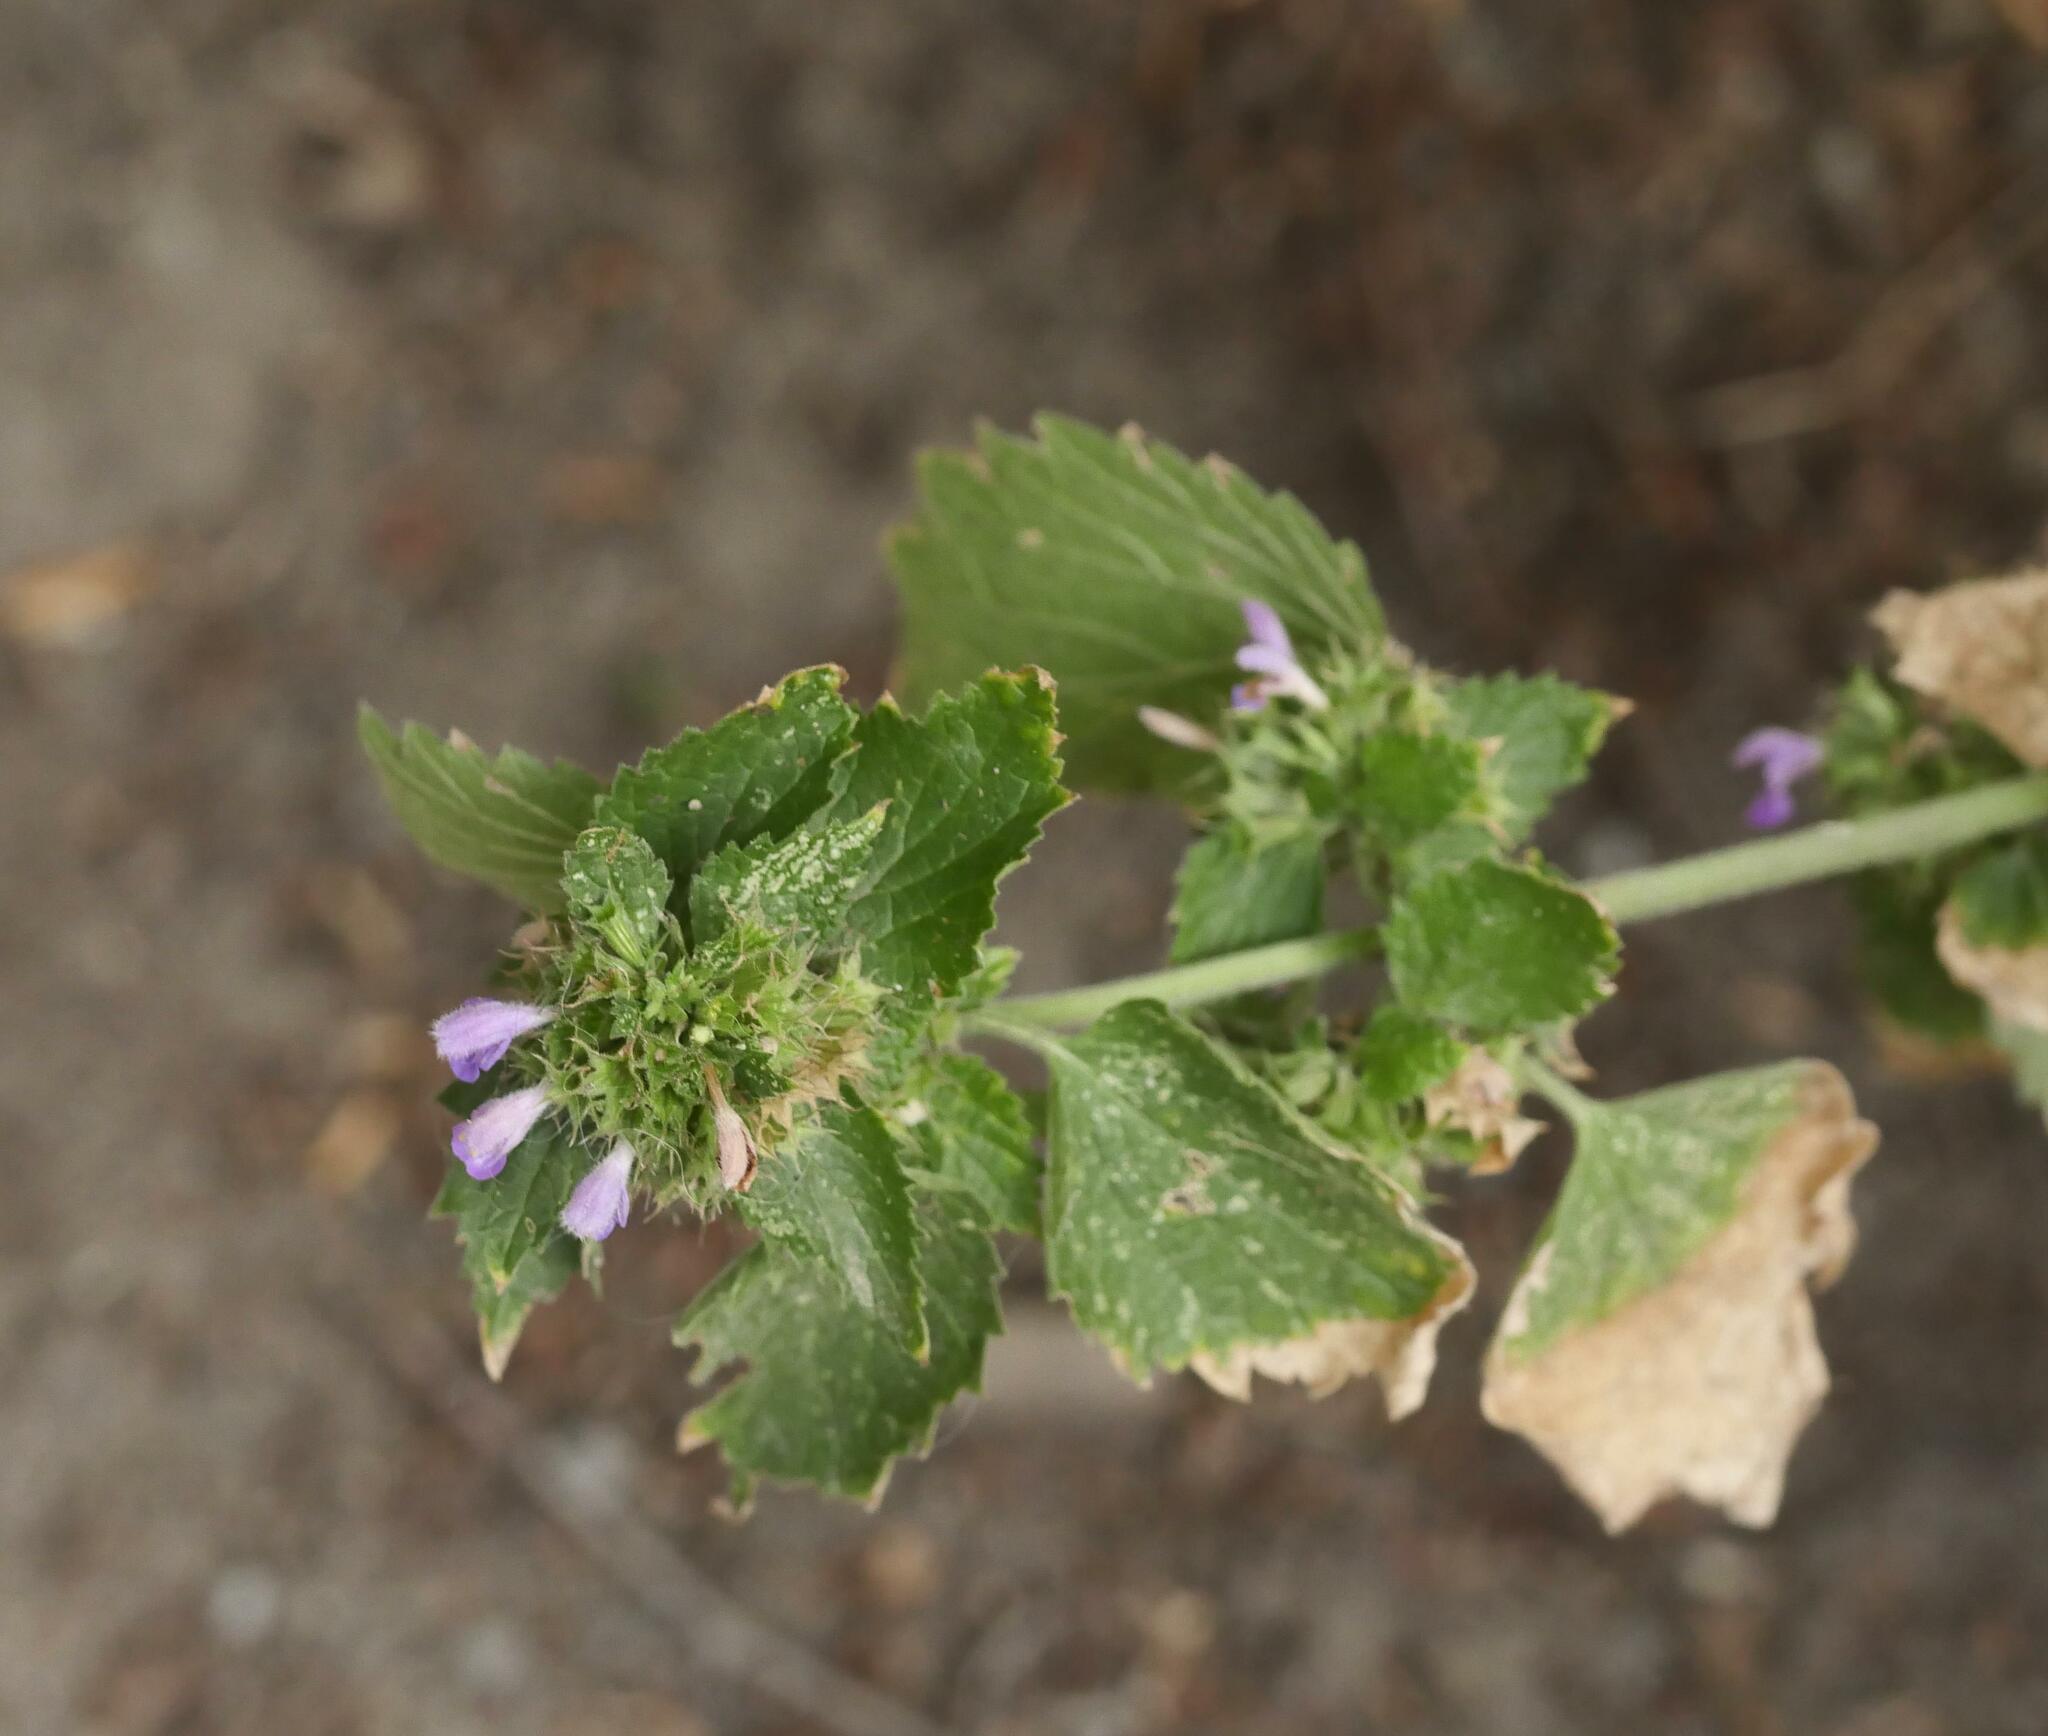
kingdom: Plantae
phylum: Tracheophyta
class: Magnoliopsida
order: Lamiales
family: Lamiaceae
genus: Ballota
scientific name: Ballota nigra
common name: Black horehound
